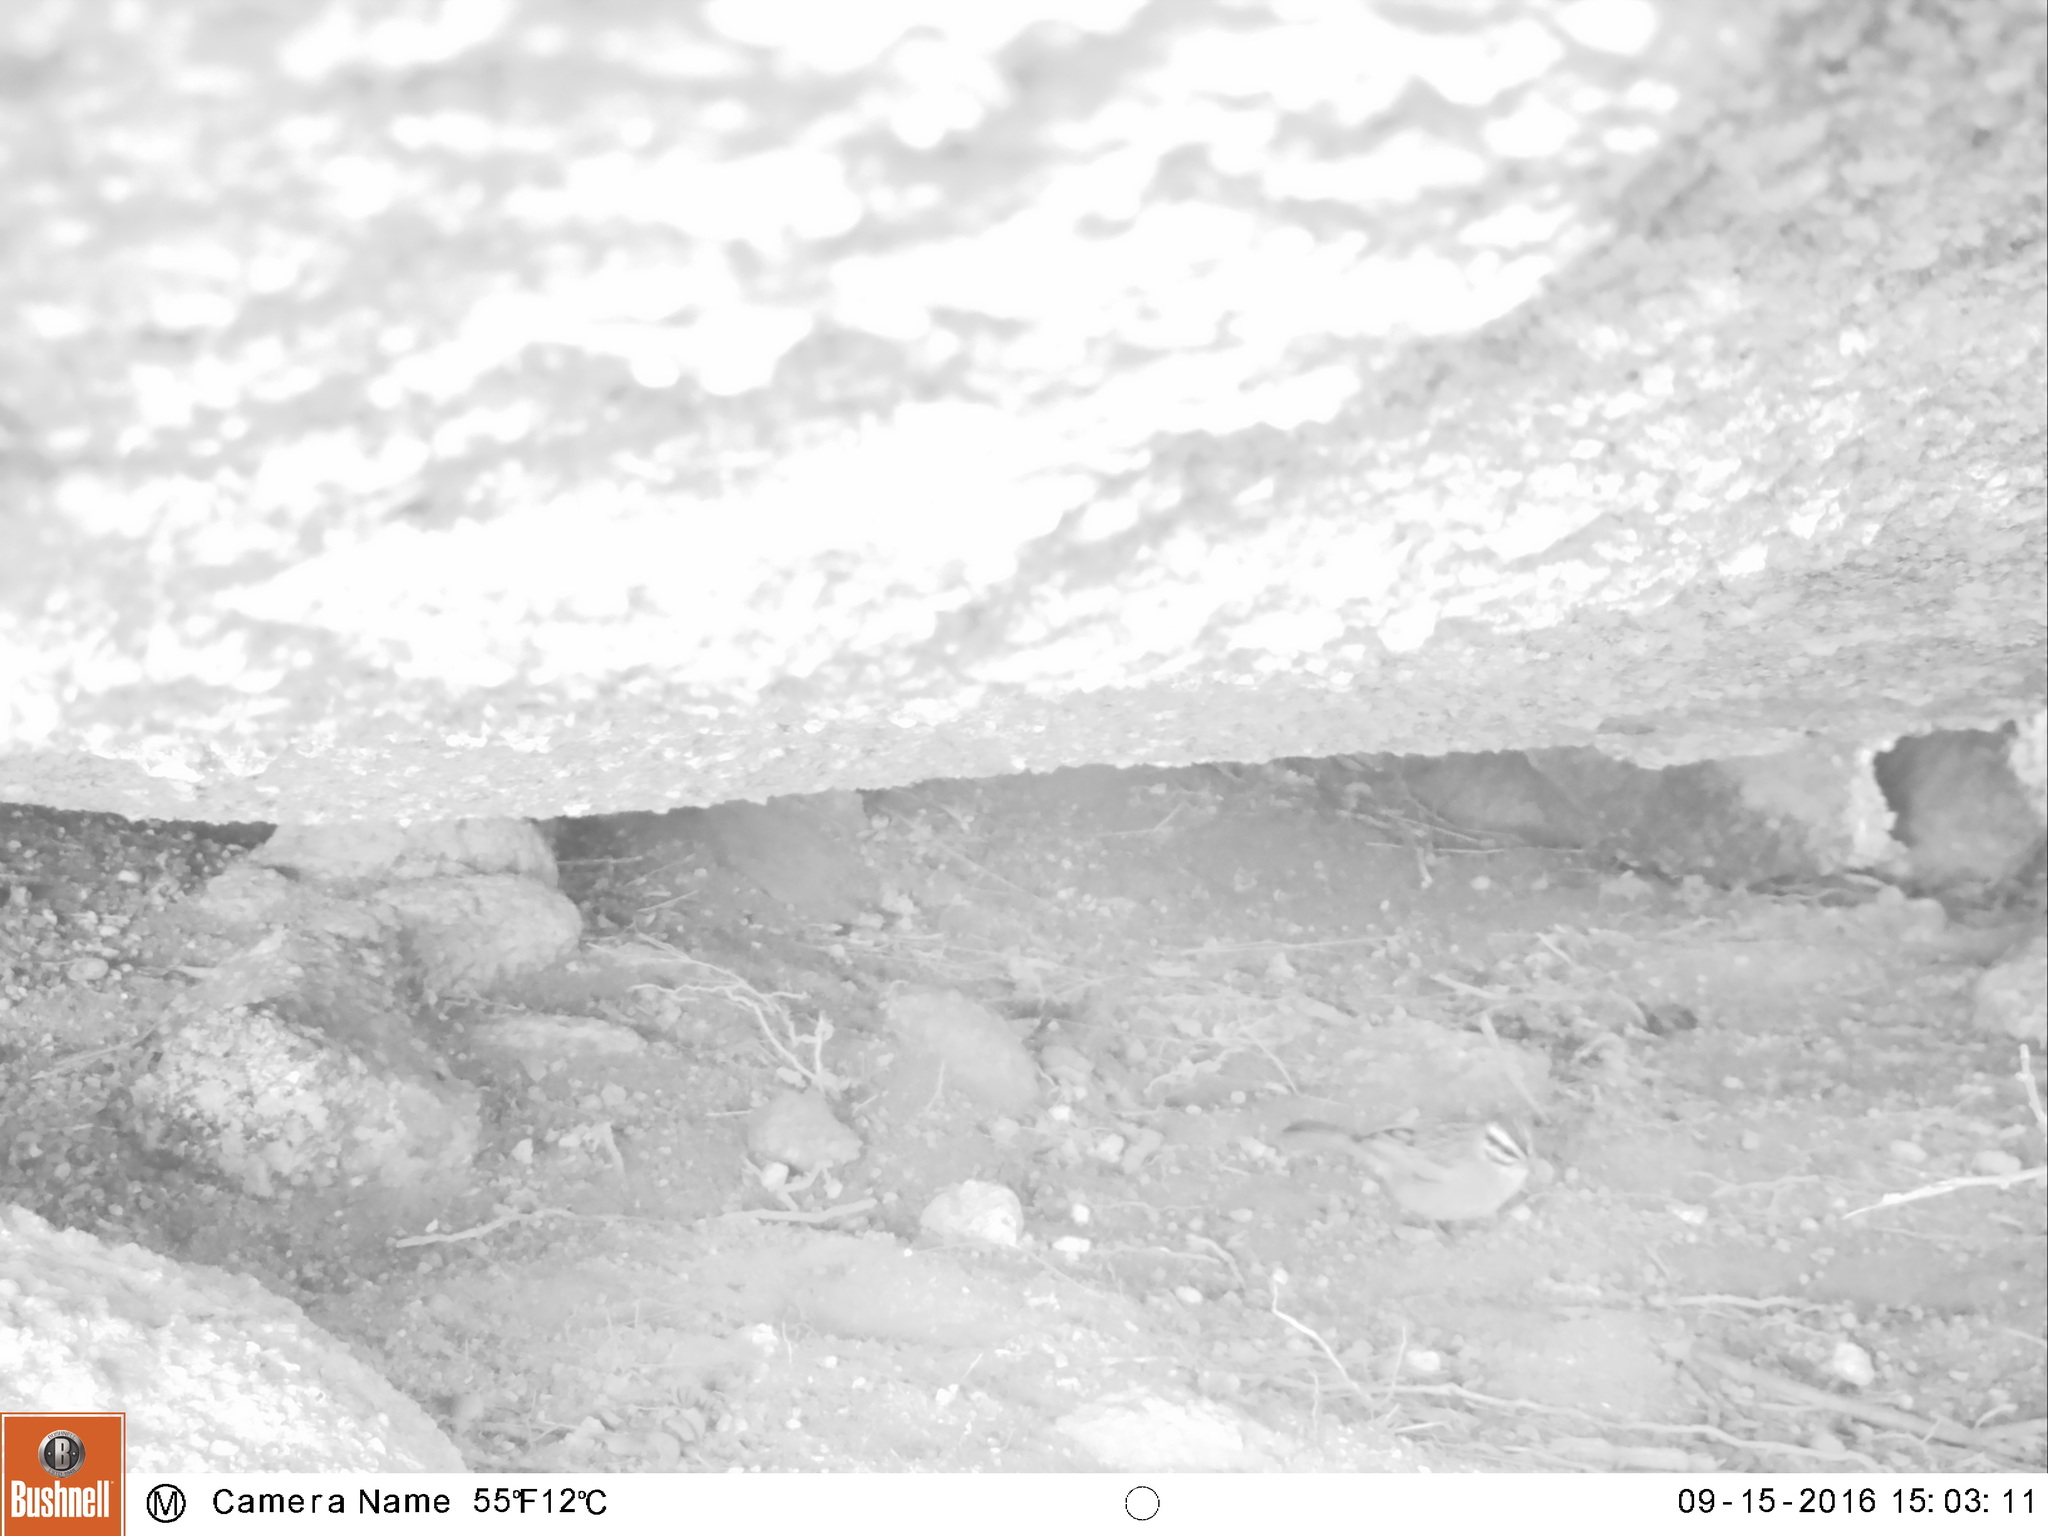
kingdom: Animalia
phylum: Chordata
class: Aves
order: Passeriformes
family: Emberizidae
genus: Emberiza
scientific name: Emberiza capensis
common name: Cape bunting
